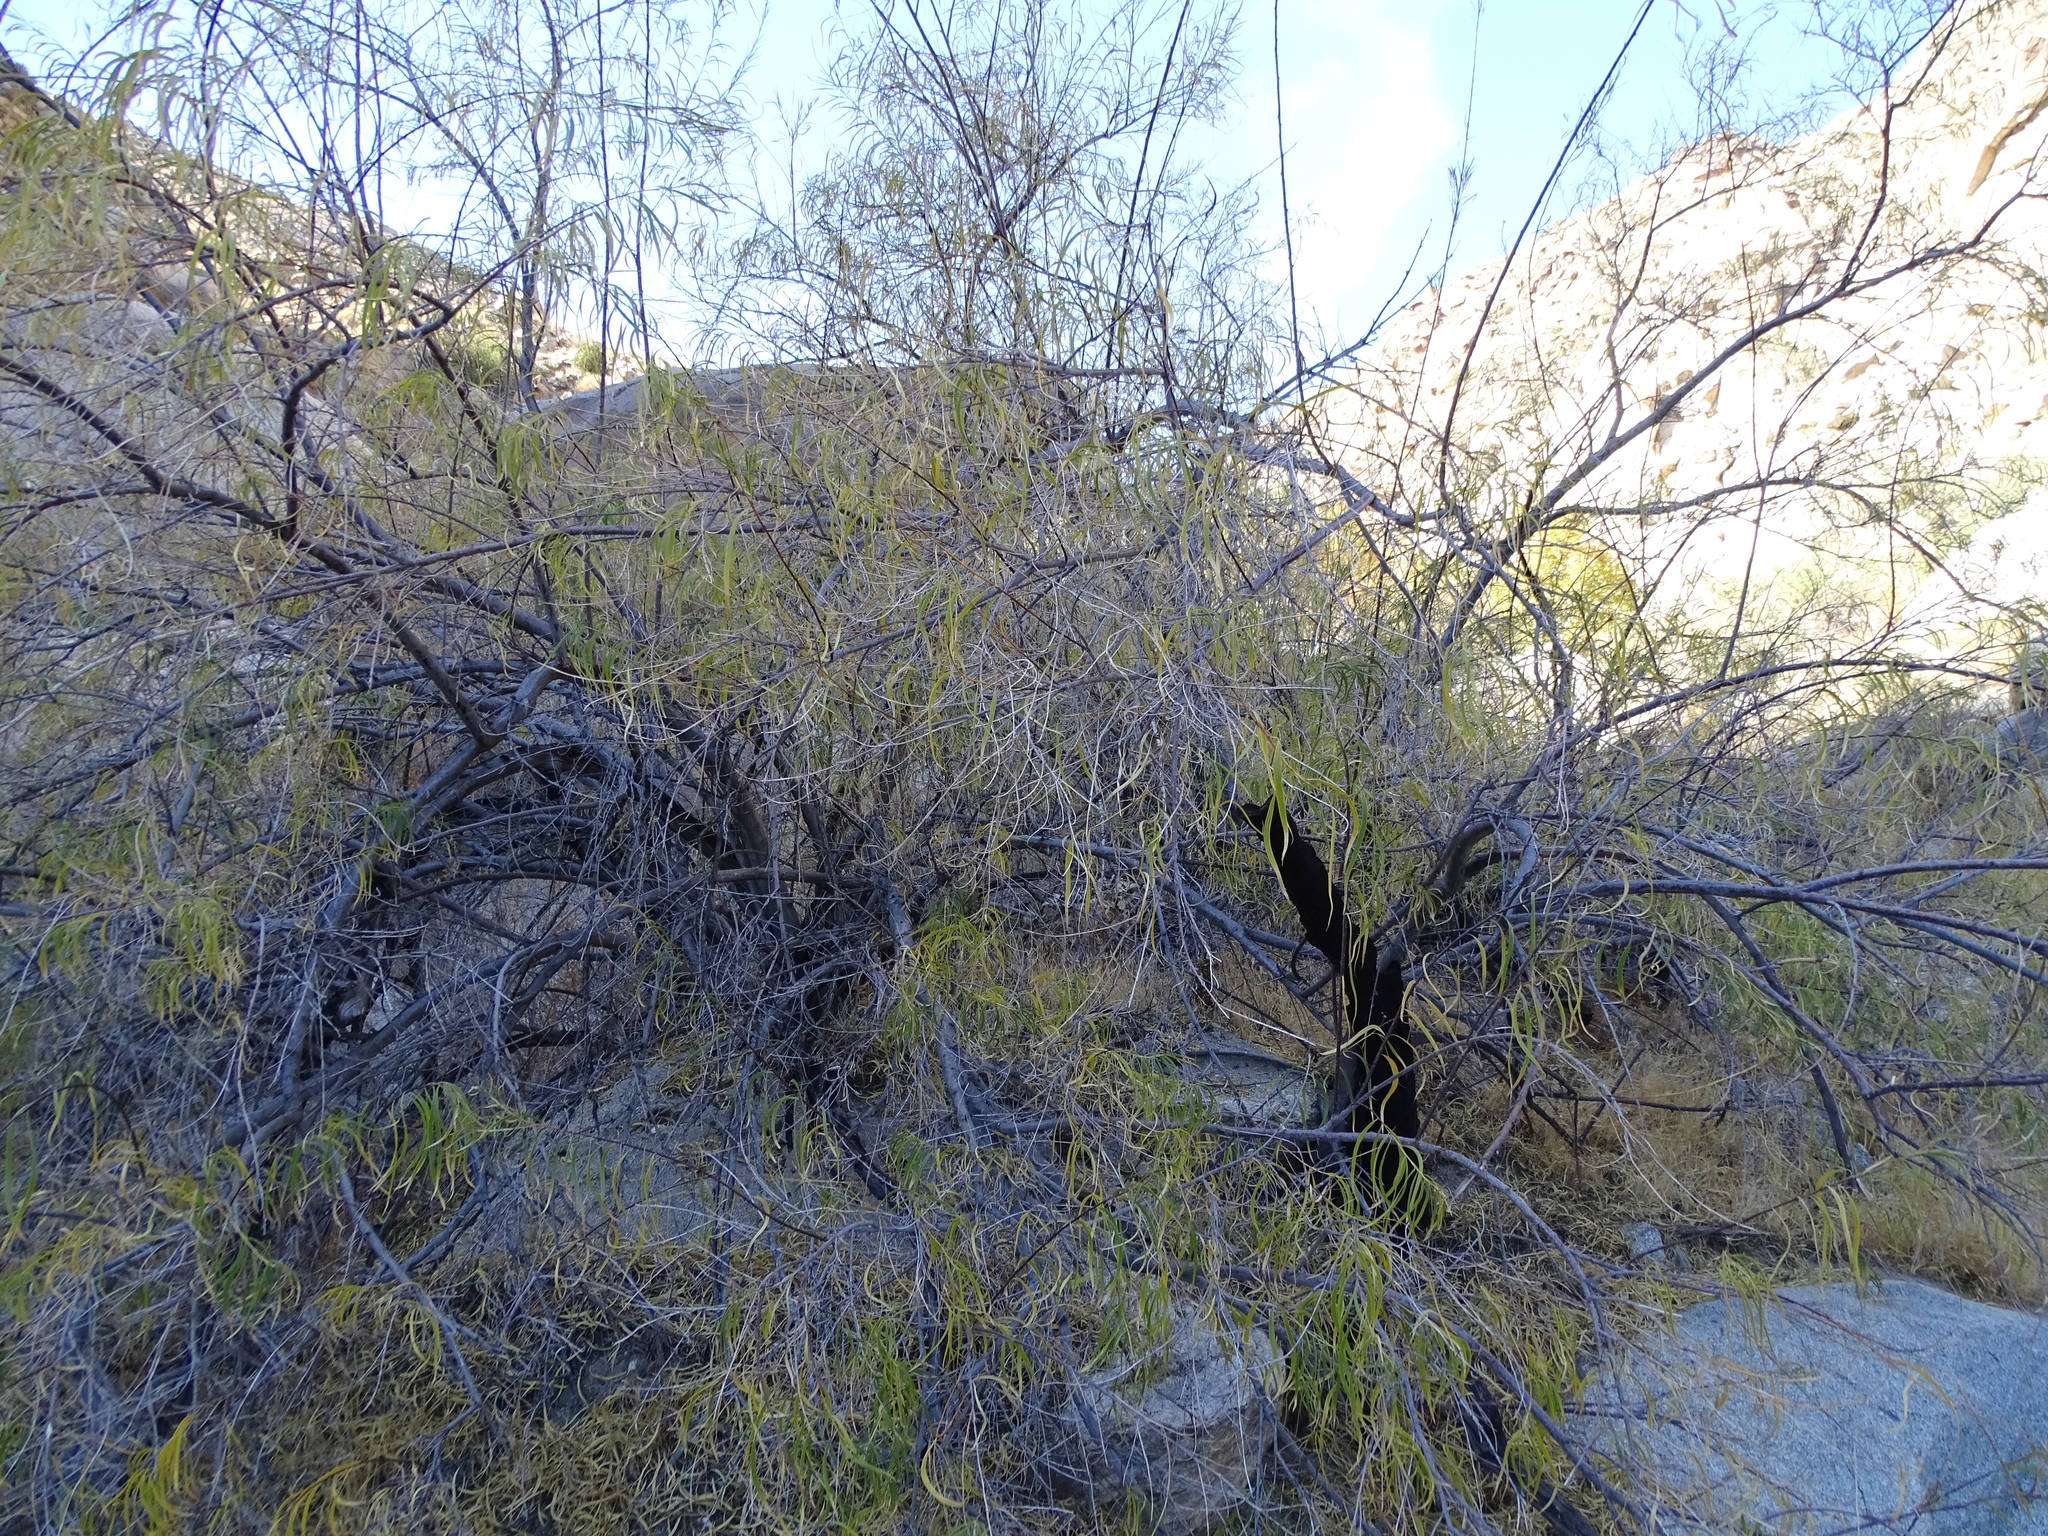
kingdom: Plantae
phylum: Tracheophyta
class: Magnoliopsida
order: Lamiales
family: Bignoniaceae
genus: Chilopsis
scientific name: Chilopsis linearis
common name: Desert-willow
